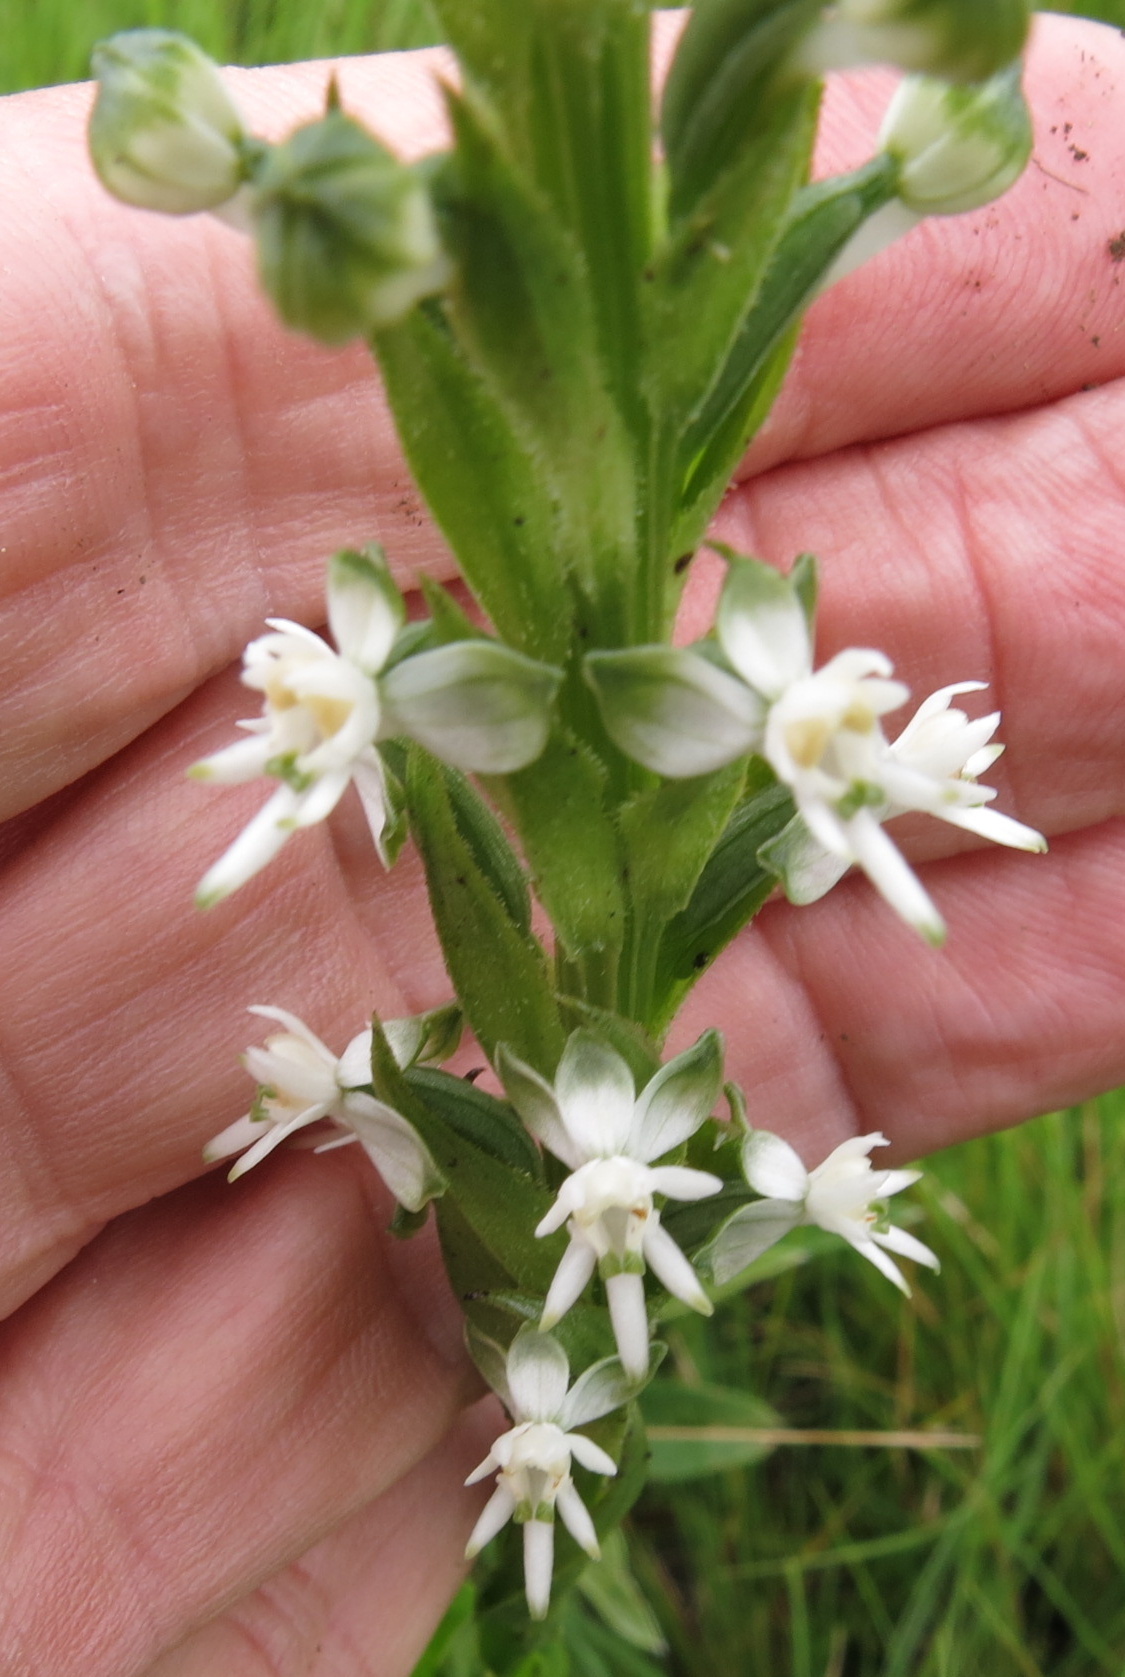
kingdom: Plantae
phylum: Tracheophyta
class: Liliopsida
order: Asparagales
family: Orchidaceae
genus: Habenaria
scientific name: Habenaria dives
